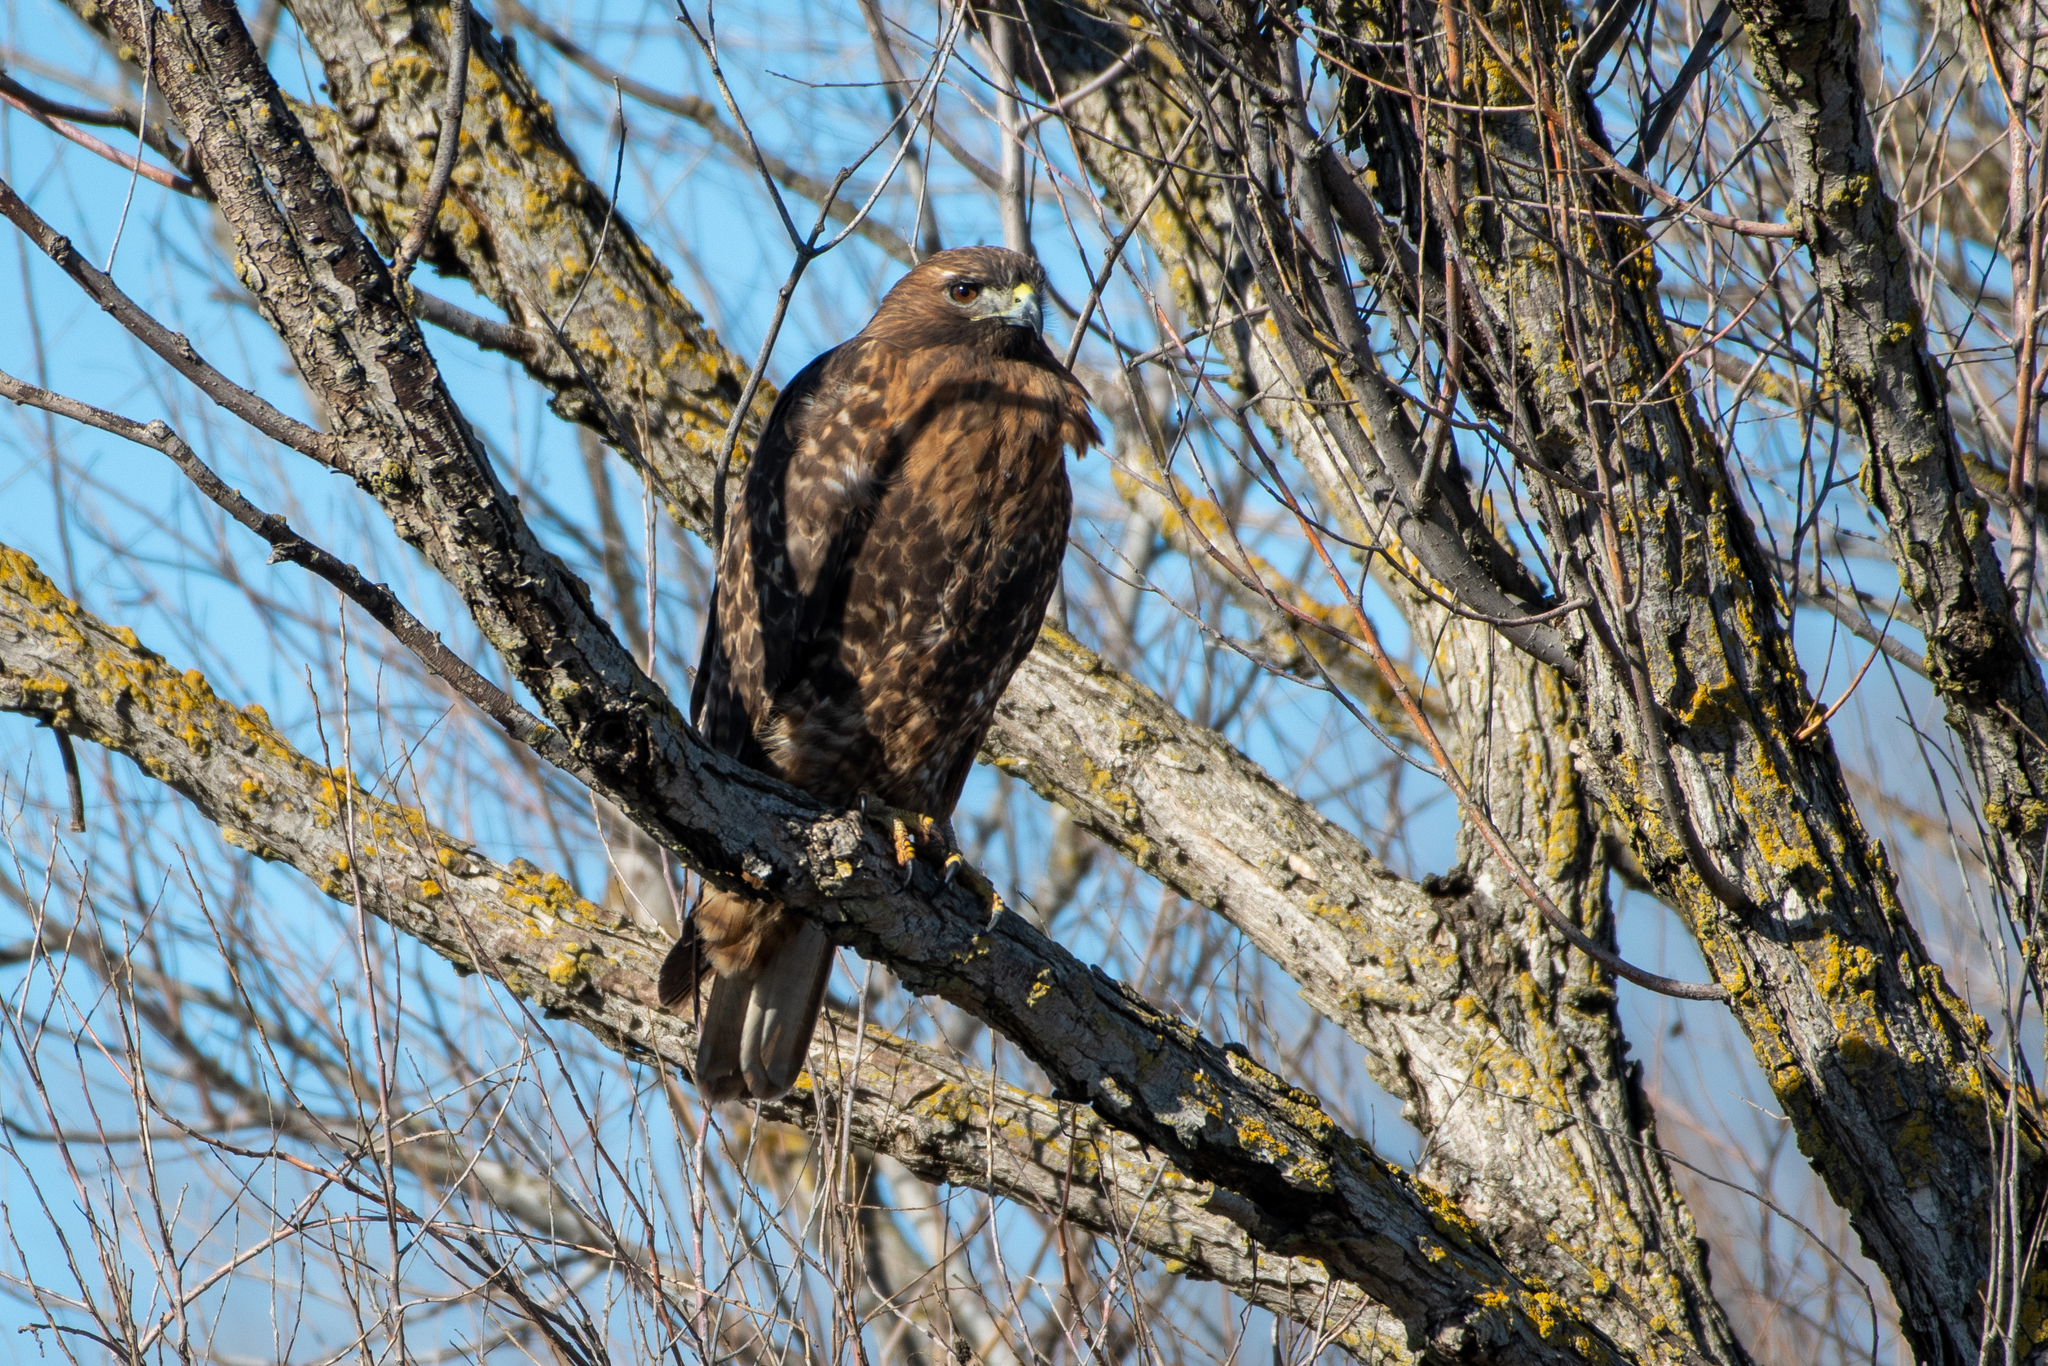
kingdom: Animalia
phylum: Chordata
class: Aves
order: Accipitriformes
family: Accipitridae
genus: Buteo
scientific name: Buteo jamaicensis
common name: Red-tailed hawk
